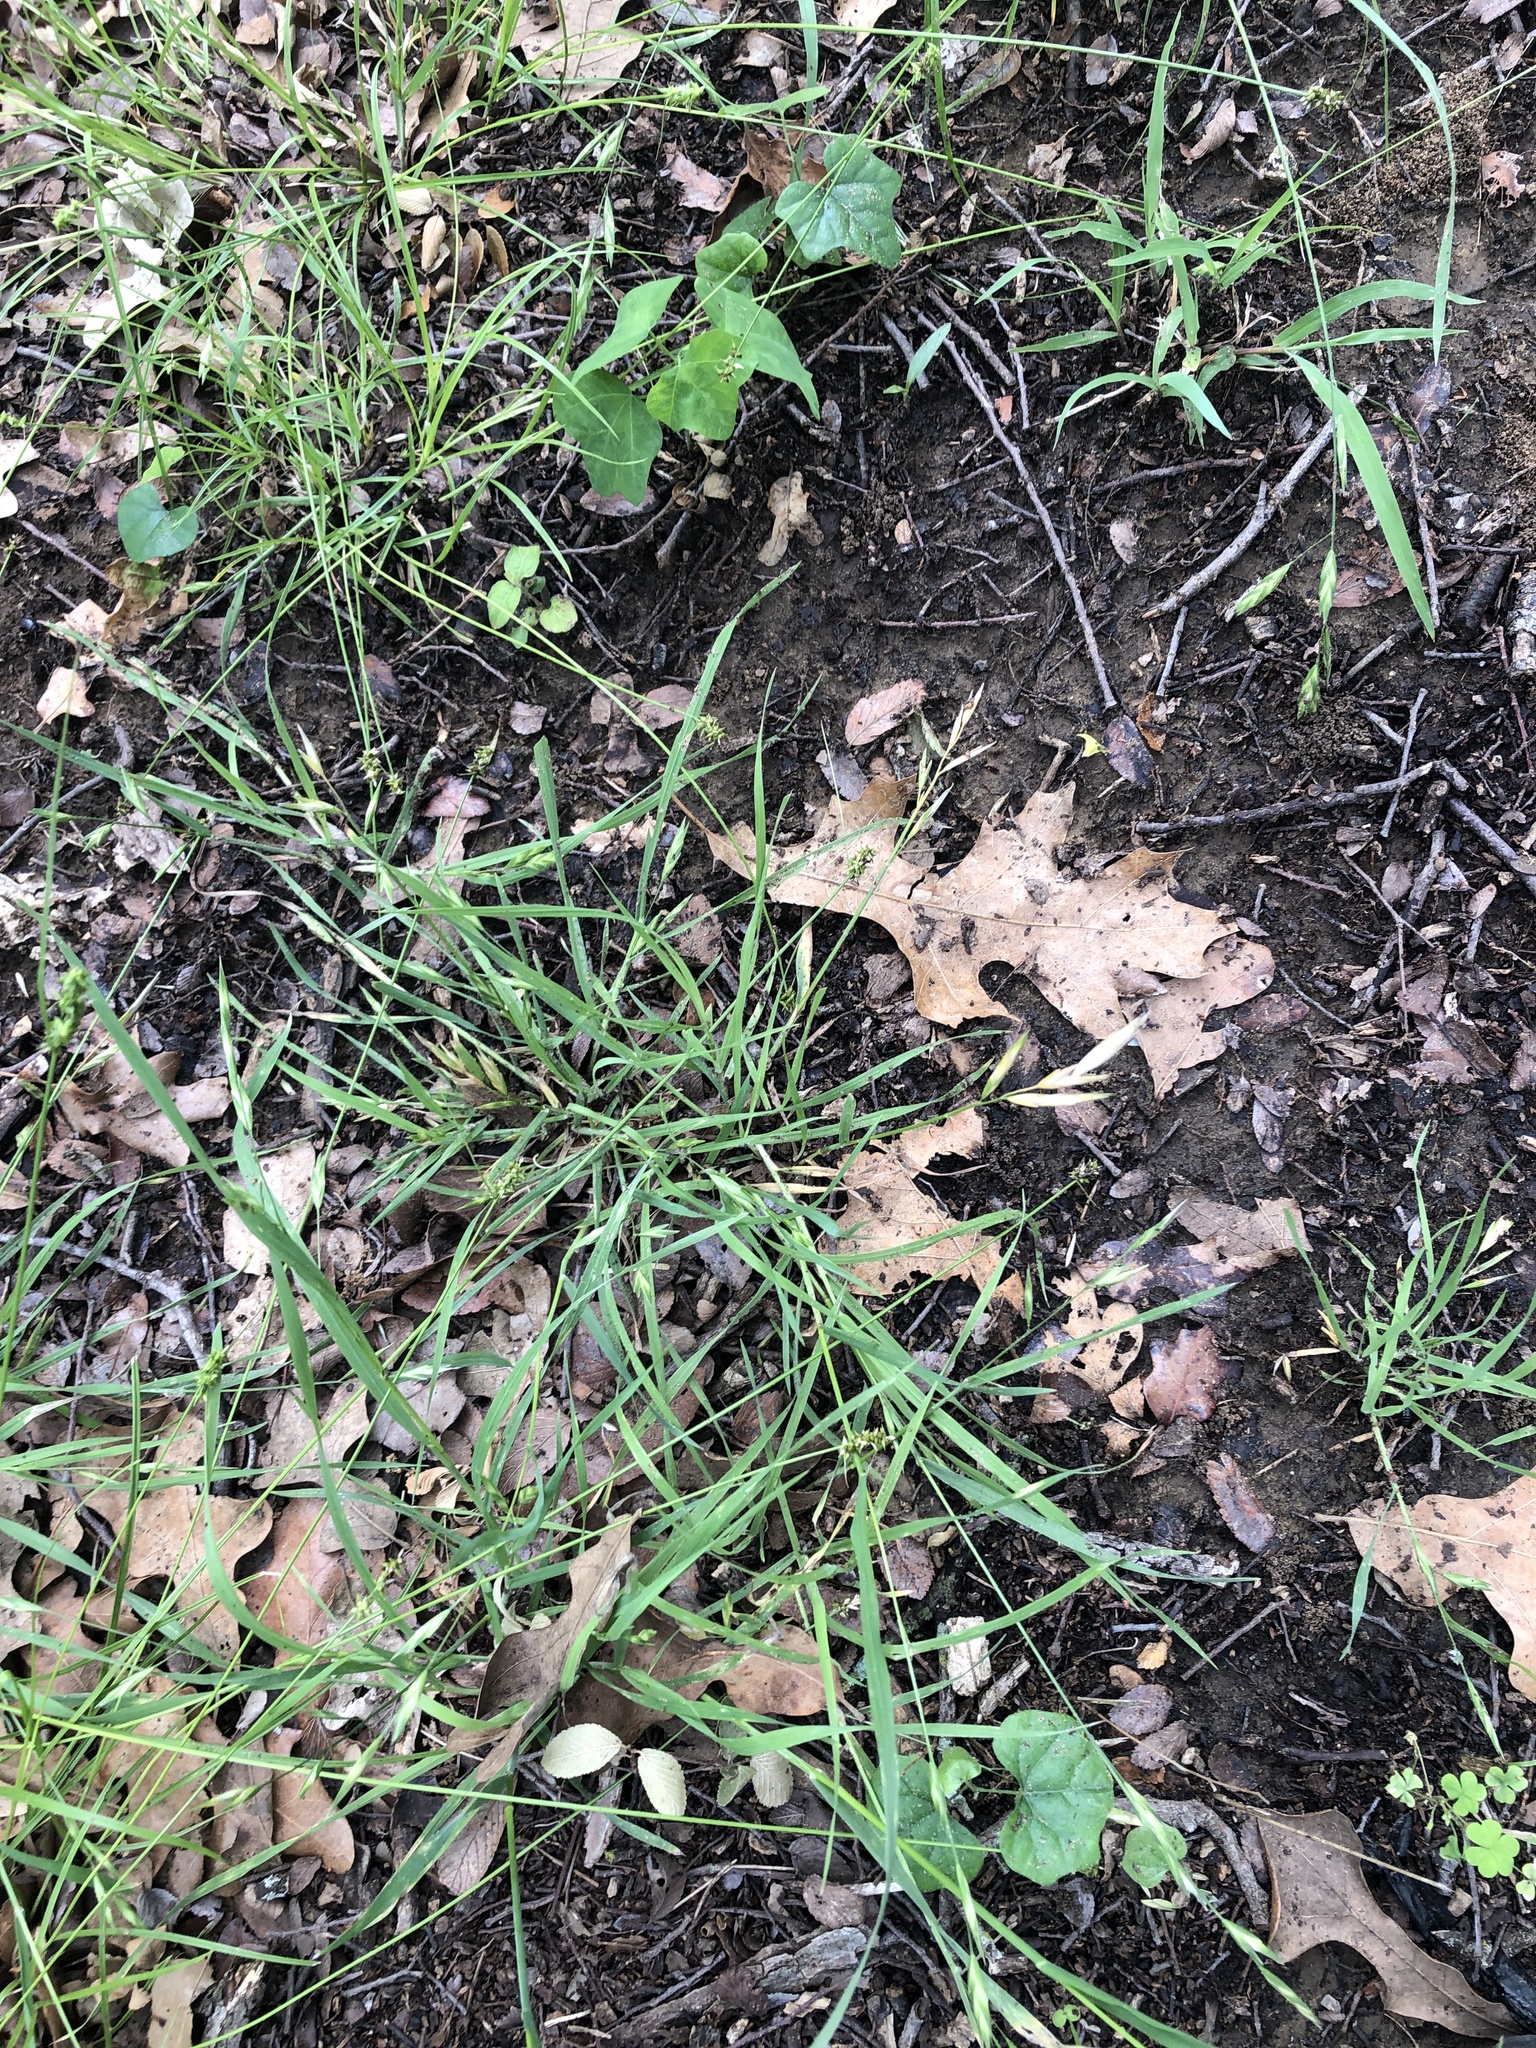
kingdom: Plantae
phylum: Tracheophyta
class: Liliopsida
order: Poales
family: Poaceae
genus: Bromus
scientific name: Bromus catharticus
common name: Rescuegrass
